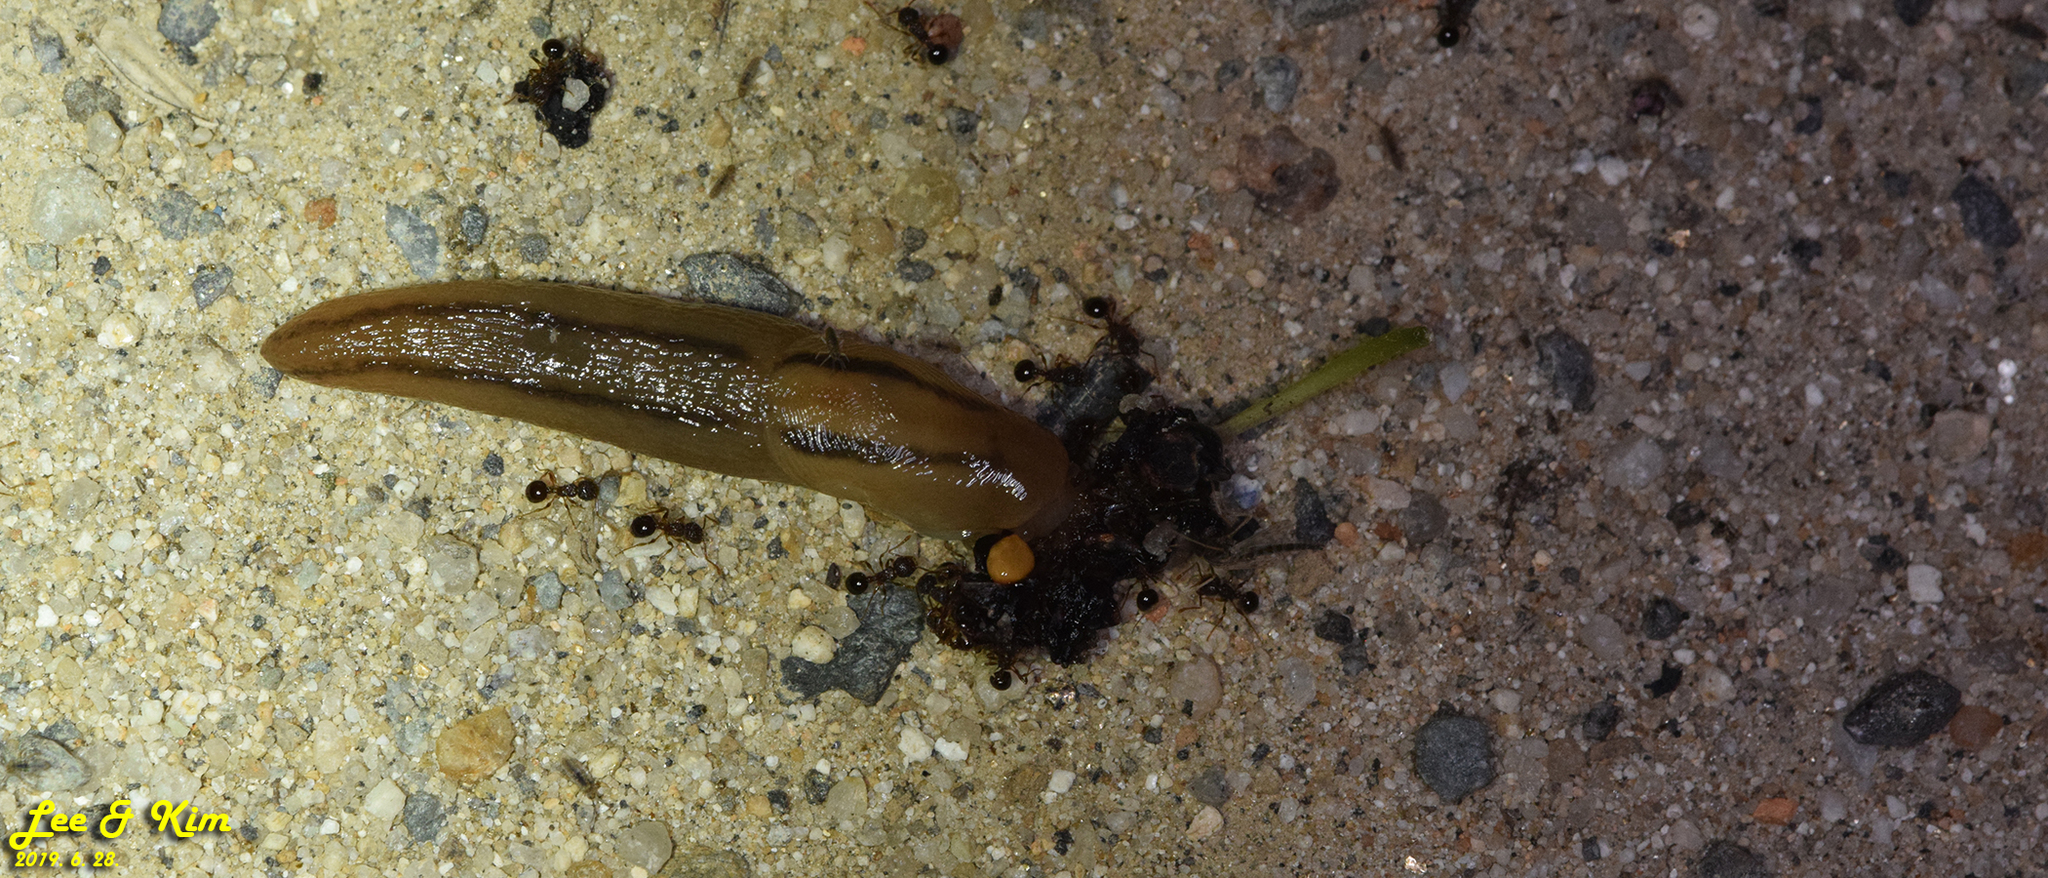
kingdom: Animalia
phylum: Mollusca
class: Gastropoda
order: Stylommatophora
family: Limacidae
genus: Ambigolimax
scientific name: Ambigolimax valentianus
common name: Greenhouse slug
